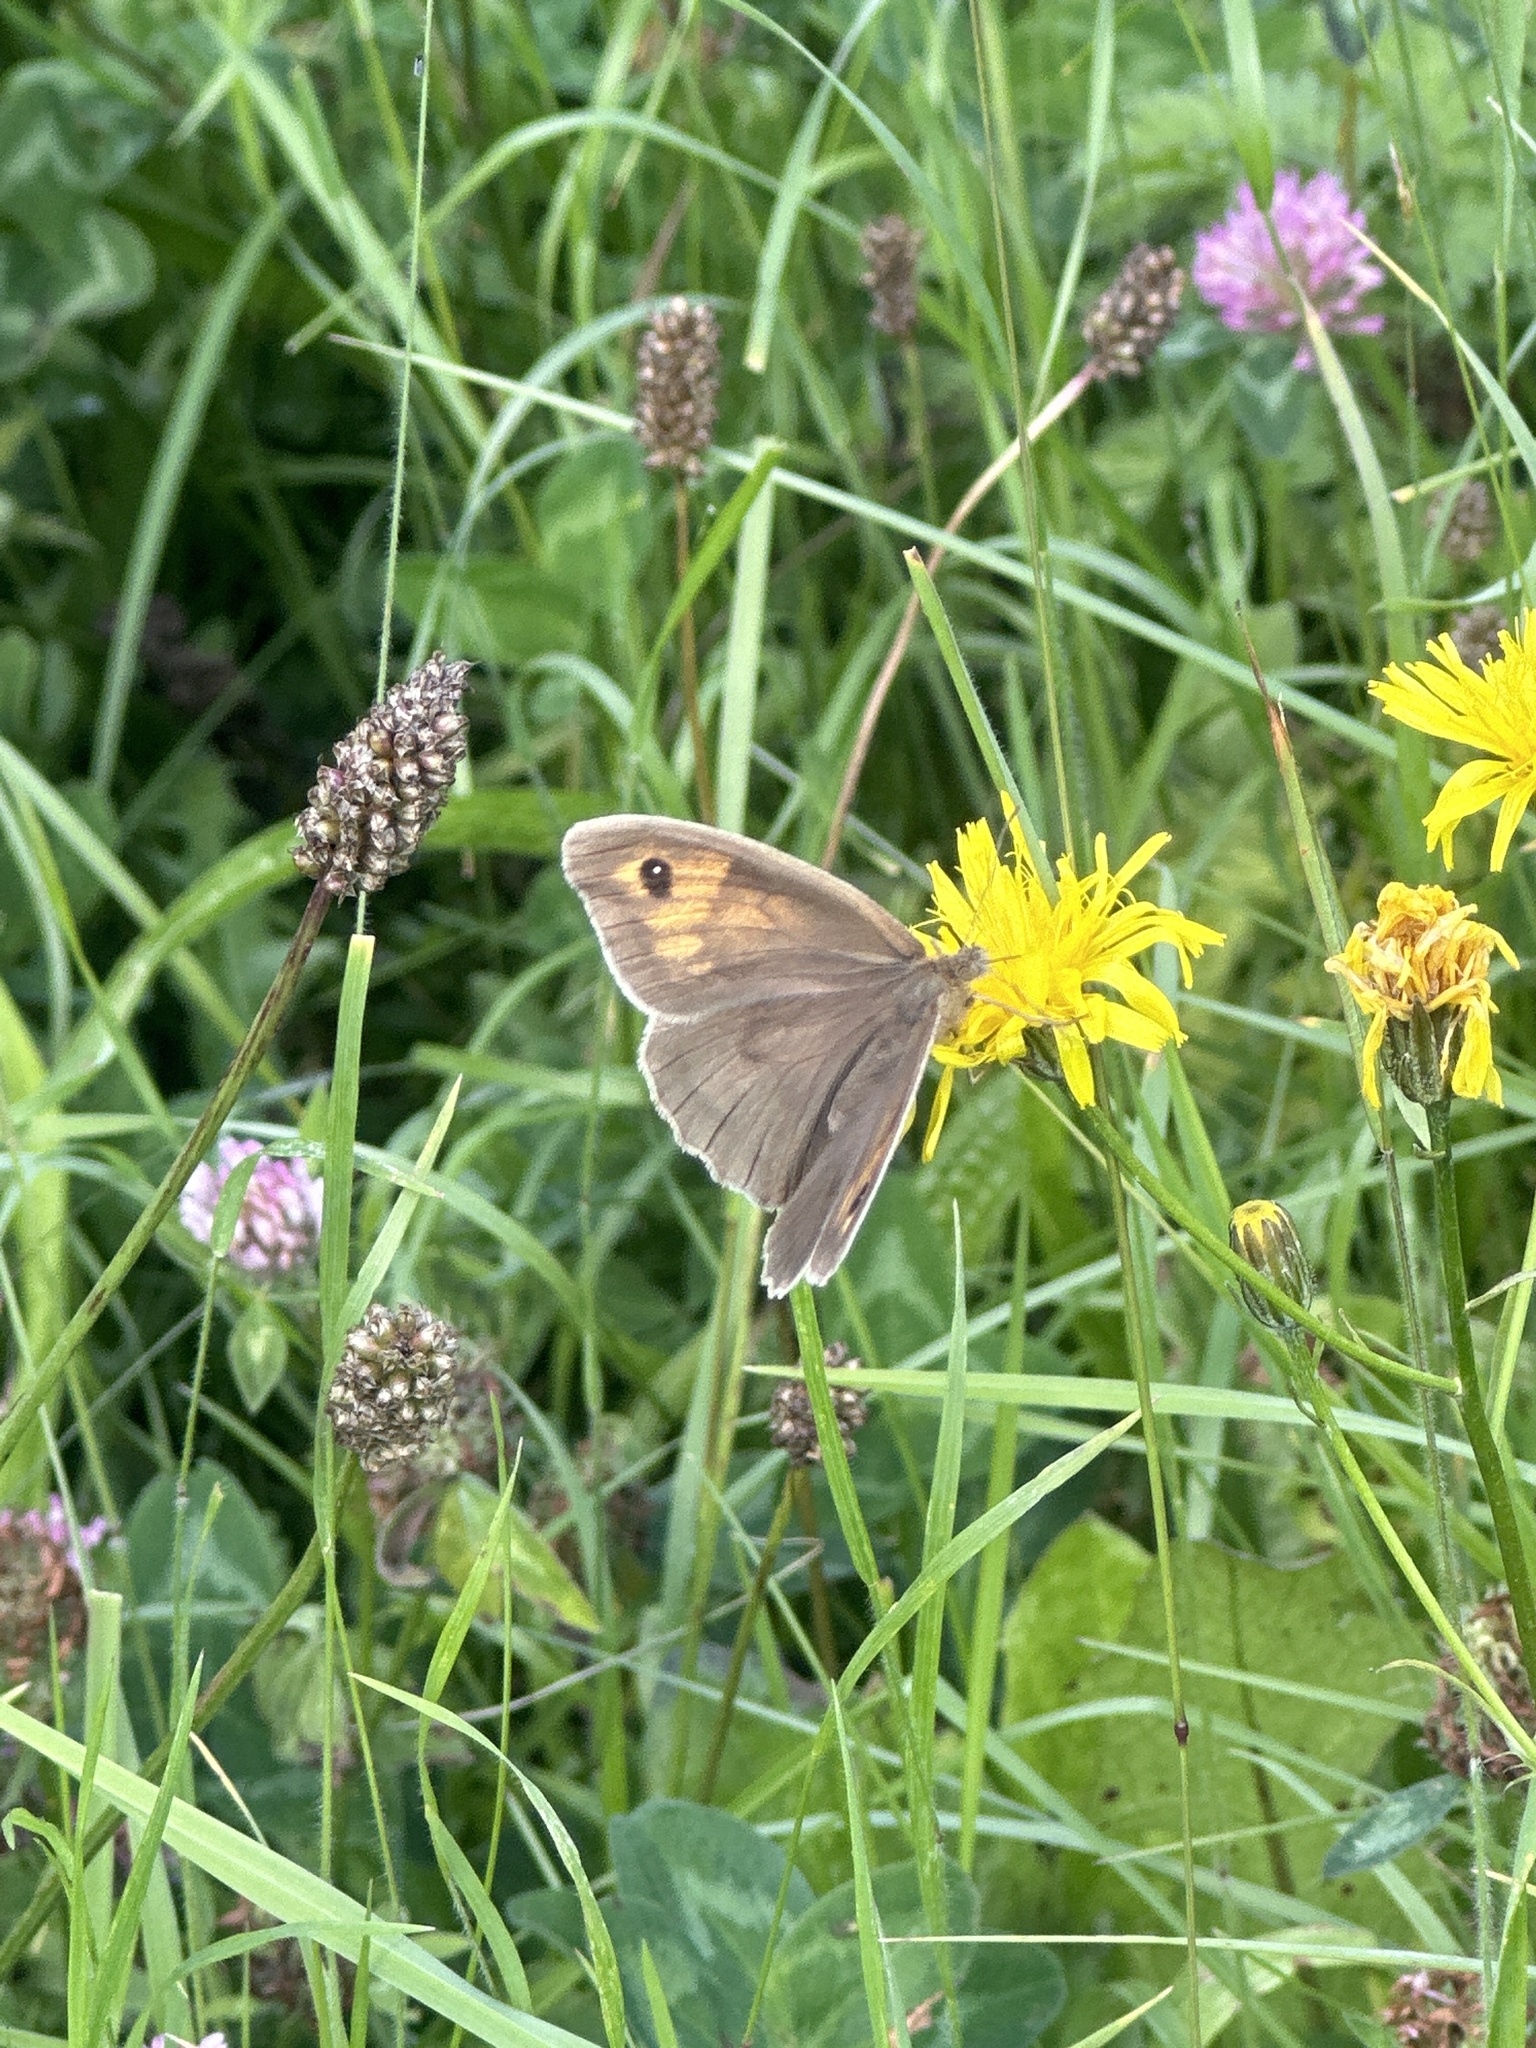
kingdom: Animalia
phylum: Arthropoda
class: Insecta
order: Lepidoptera
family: Nymphalidae
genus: Maniola
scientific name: Maniola jurtina
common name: Meadow brown
